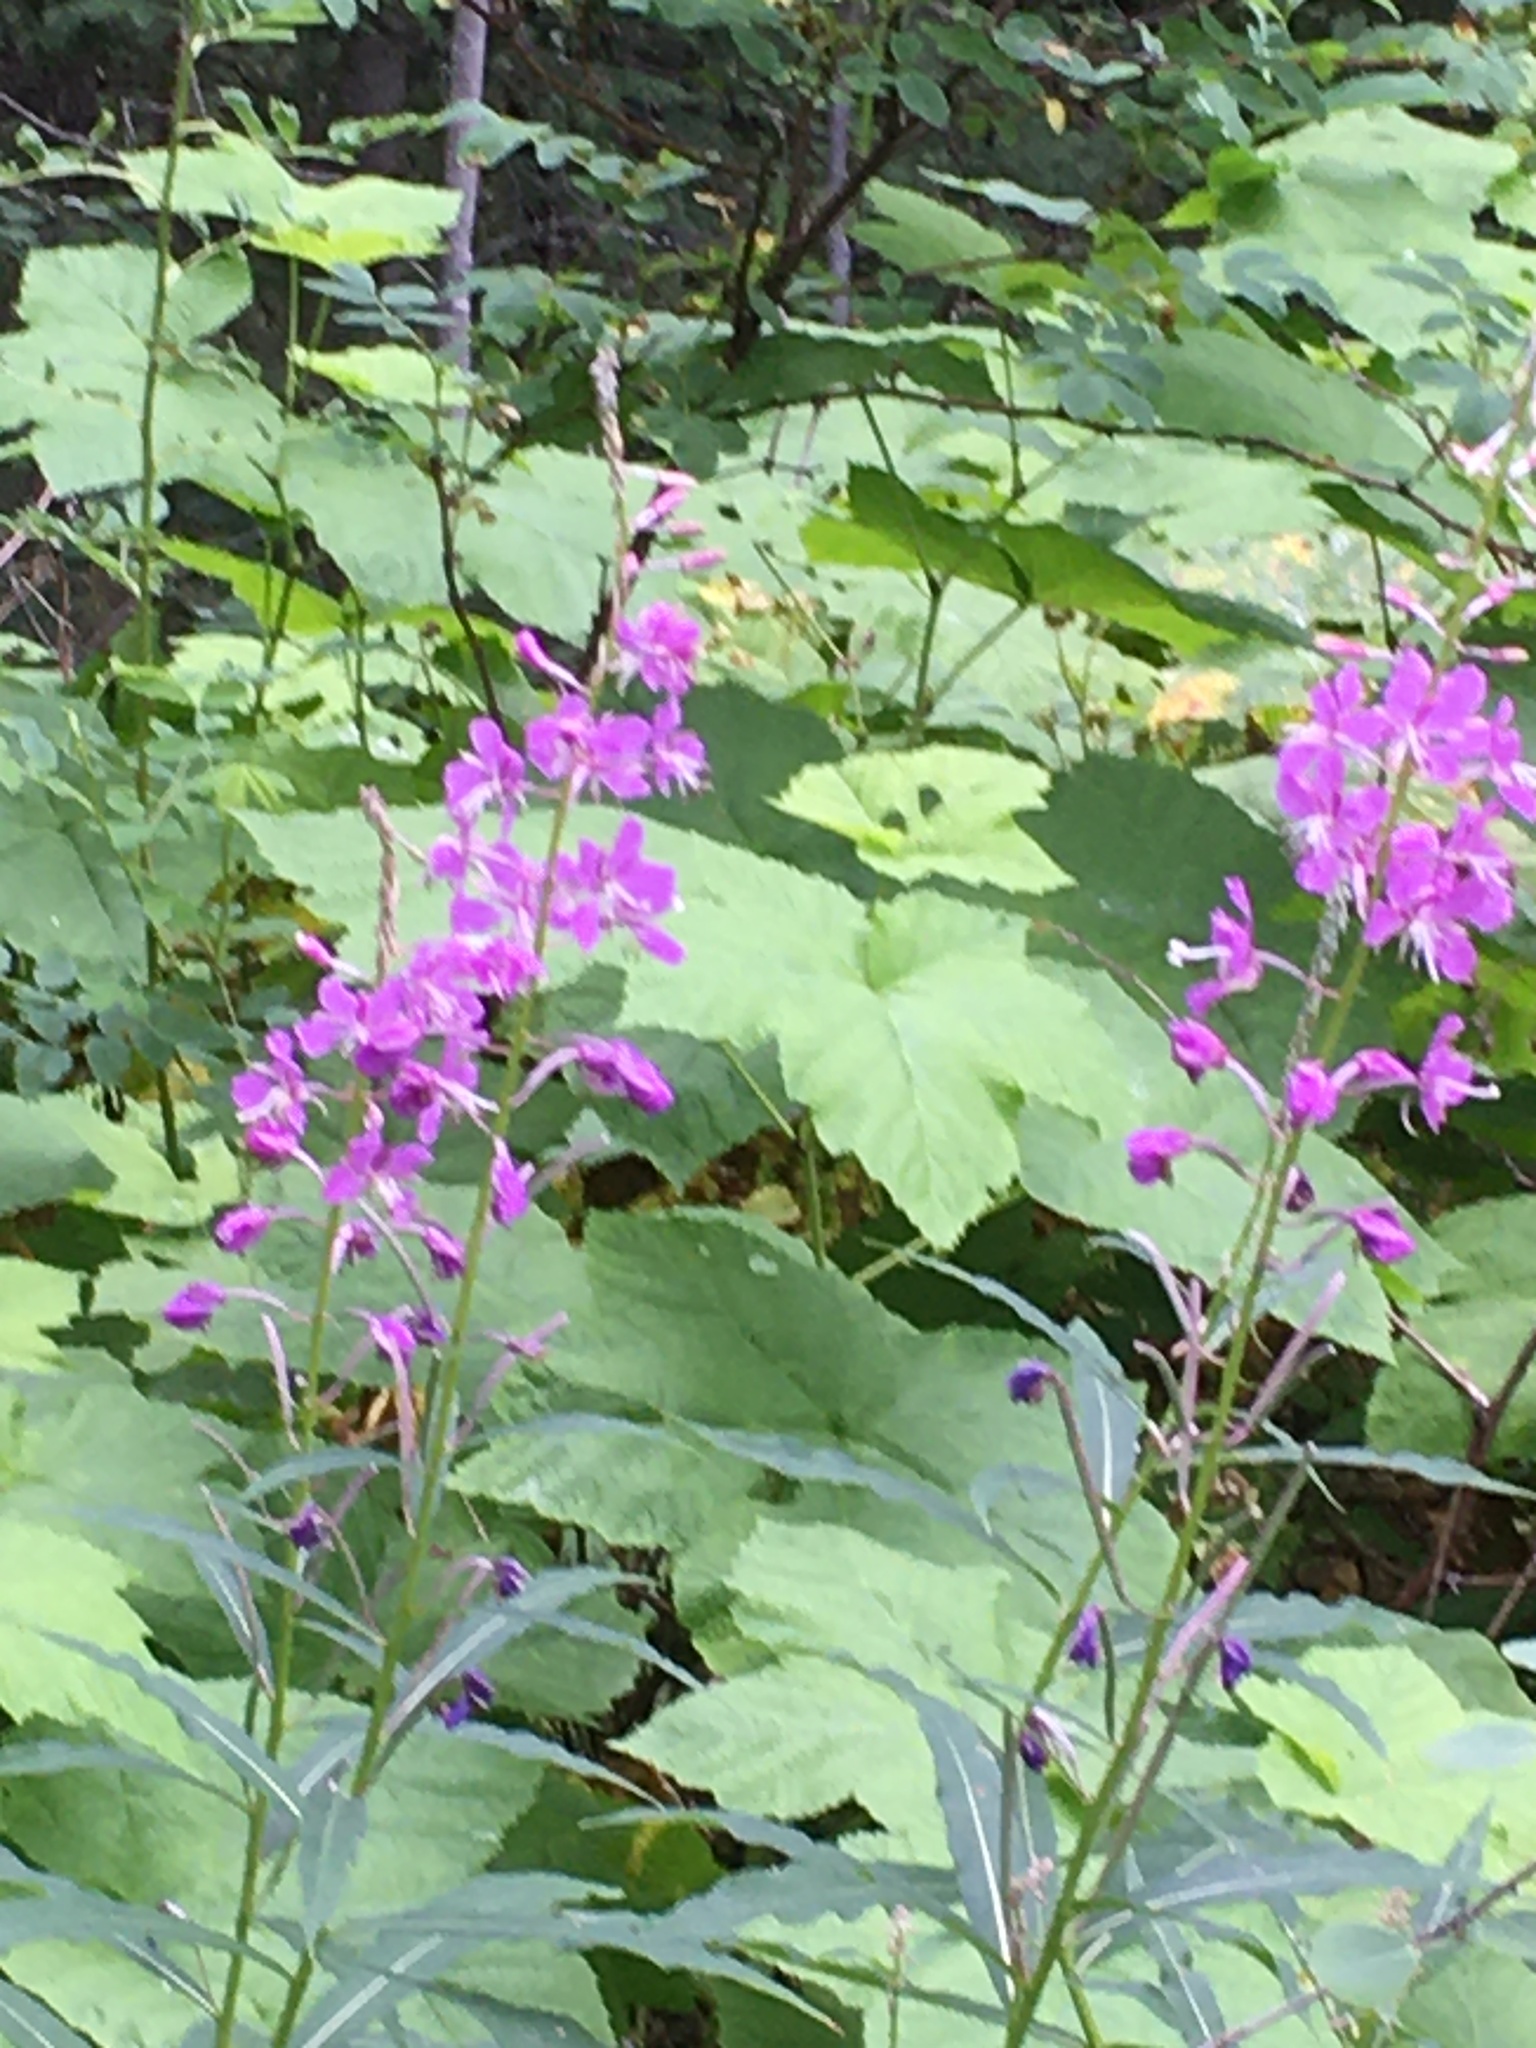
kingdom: Plantae
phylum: Tracheophyta
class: Magnoliopsida
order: Myrtales
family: Onagraceae
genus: Chamaenerion
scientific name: Chamaenerion angustifolium
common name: Fireweed
